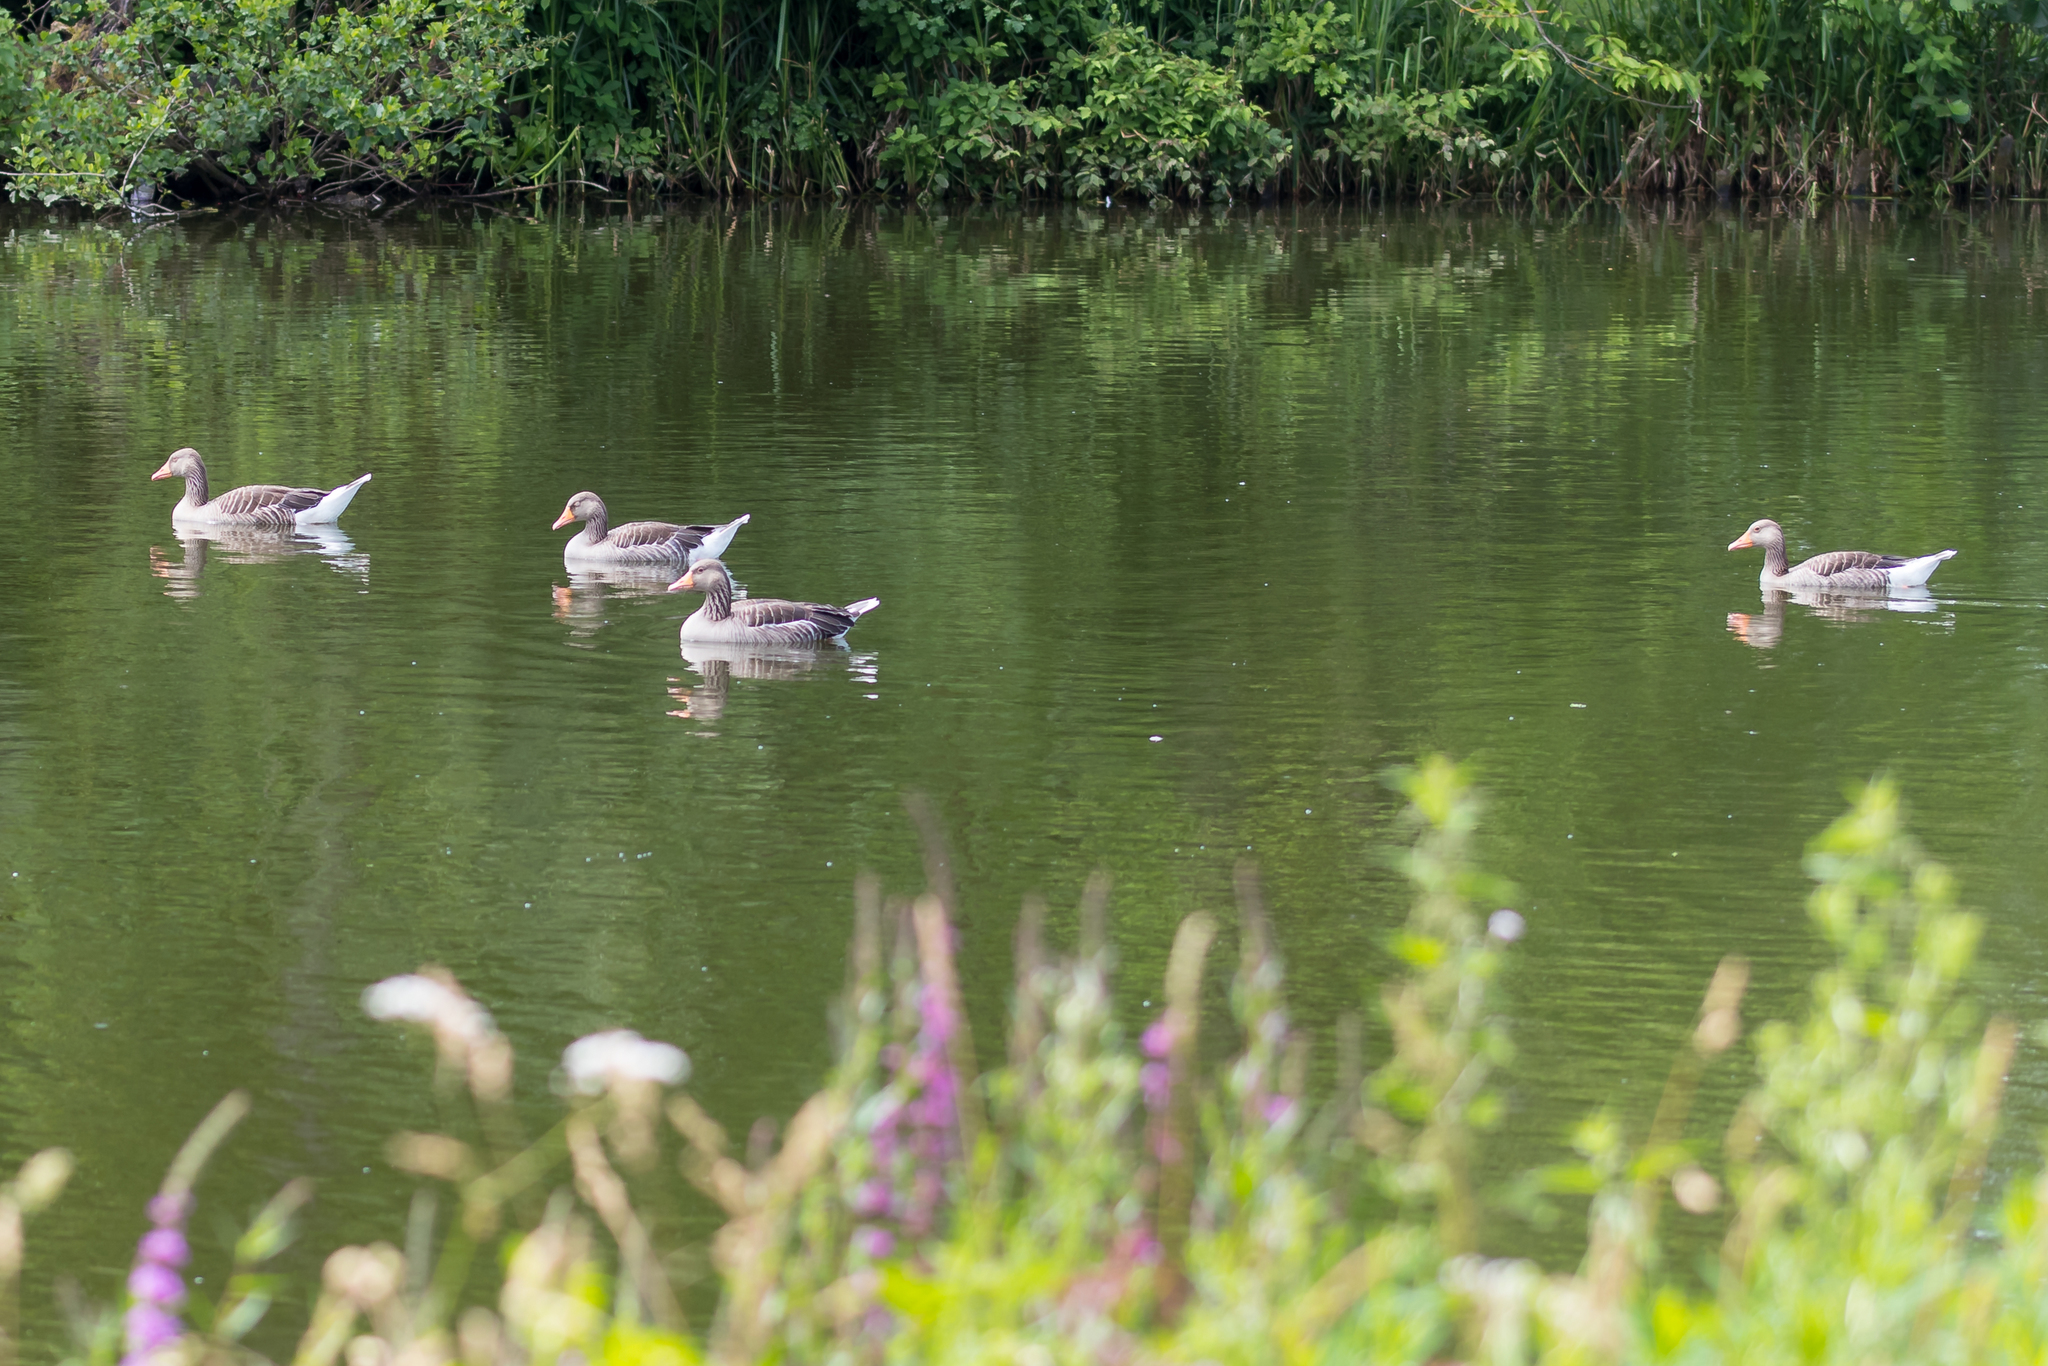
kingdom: Animalia
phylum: Chordata
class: Aves
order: Anseriformes
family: Anatidae
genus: Anser
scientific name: Anser anser
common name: Greylag goose
